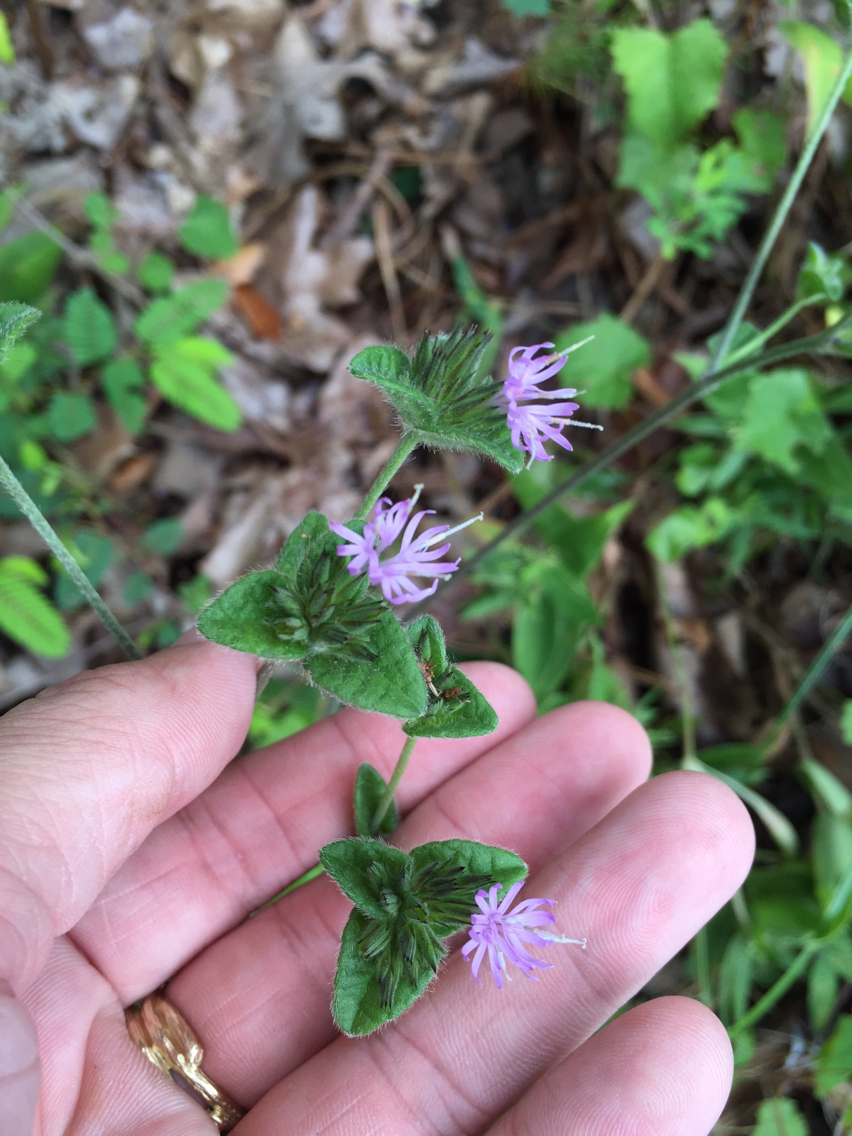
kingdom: Plantae
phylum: Tracheophyta
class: Magnoliopsida
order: Asterales
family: Asteraceae
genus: Elephantopus
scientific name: Elephantopus tomentosus
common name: Tobacco-weed
